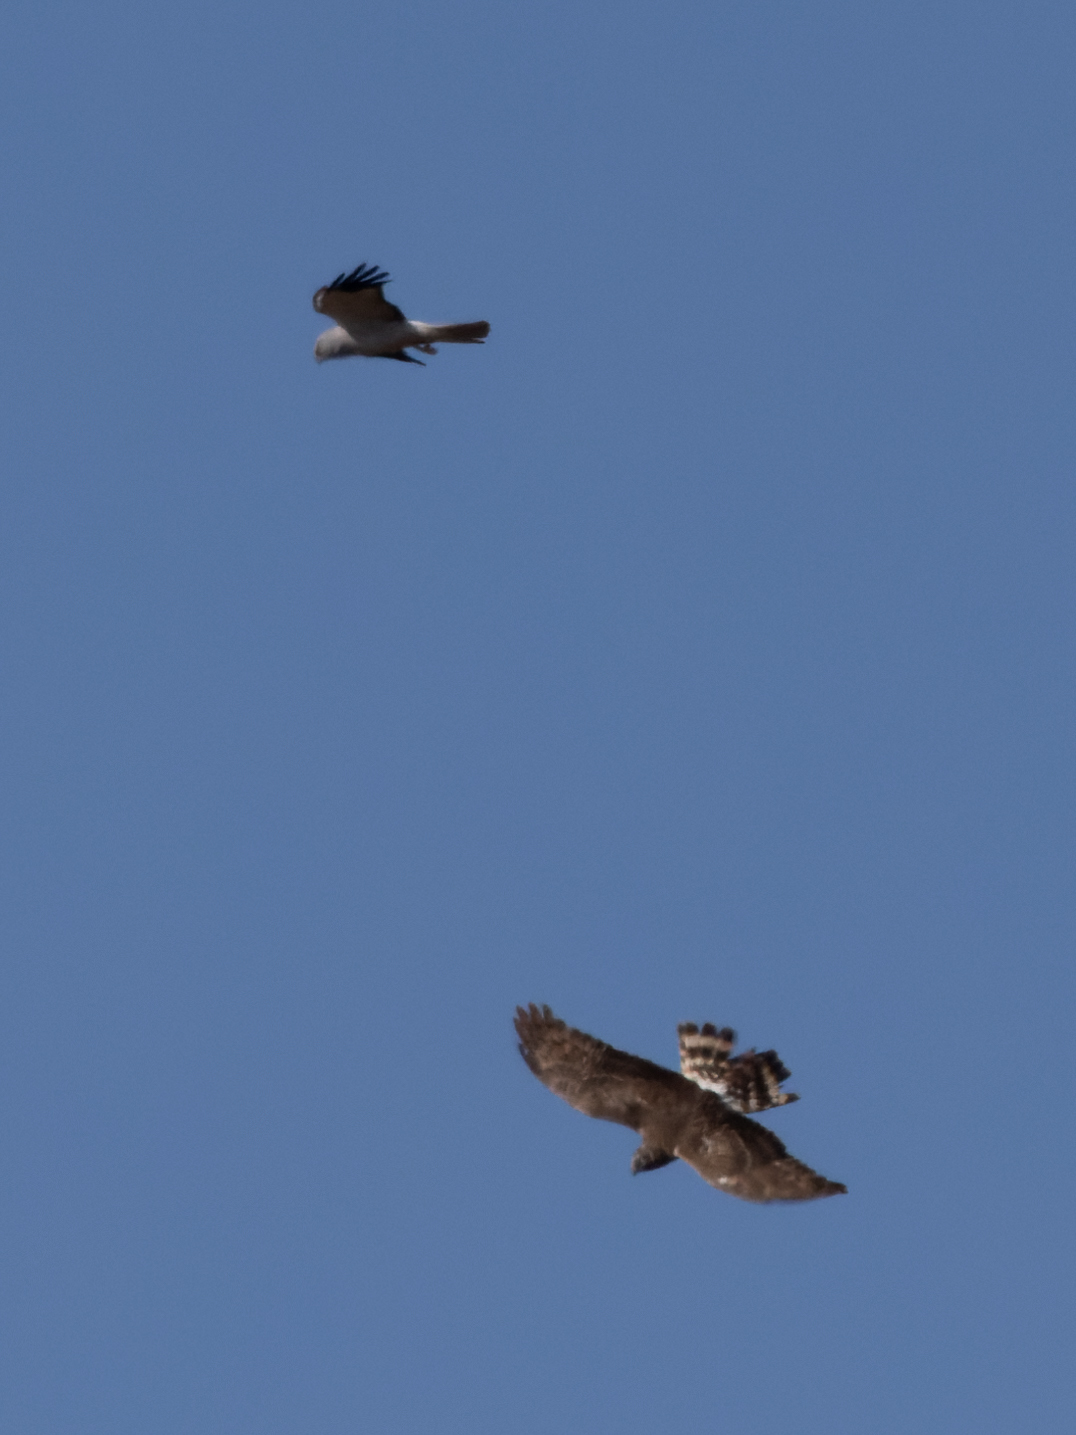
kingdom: Animalia
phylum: Chordata
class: Aves
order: Accipitriformes
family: Accipitridae
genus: Circus
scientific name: Circus cyaneus
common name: Hen harrier
